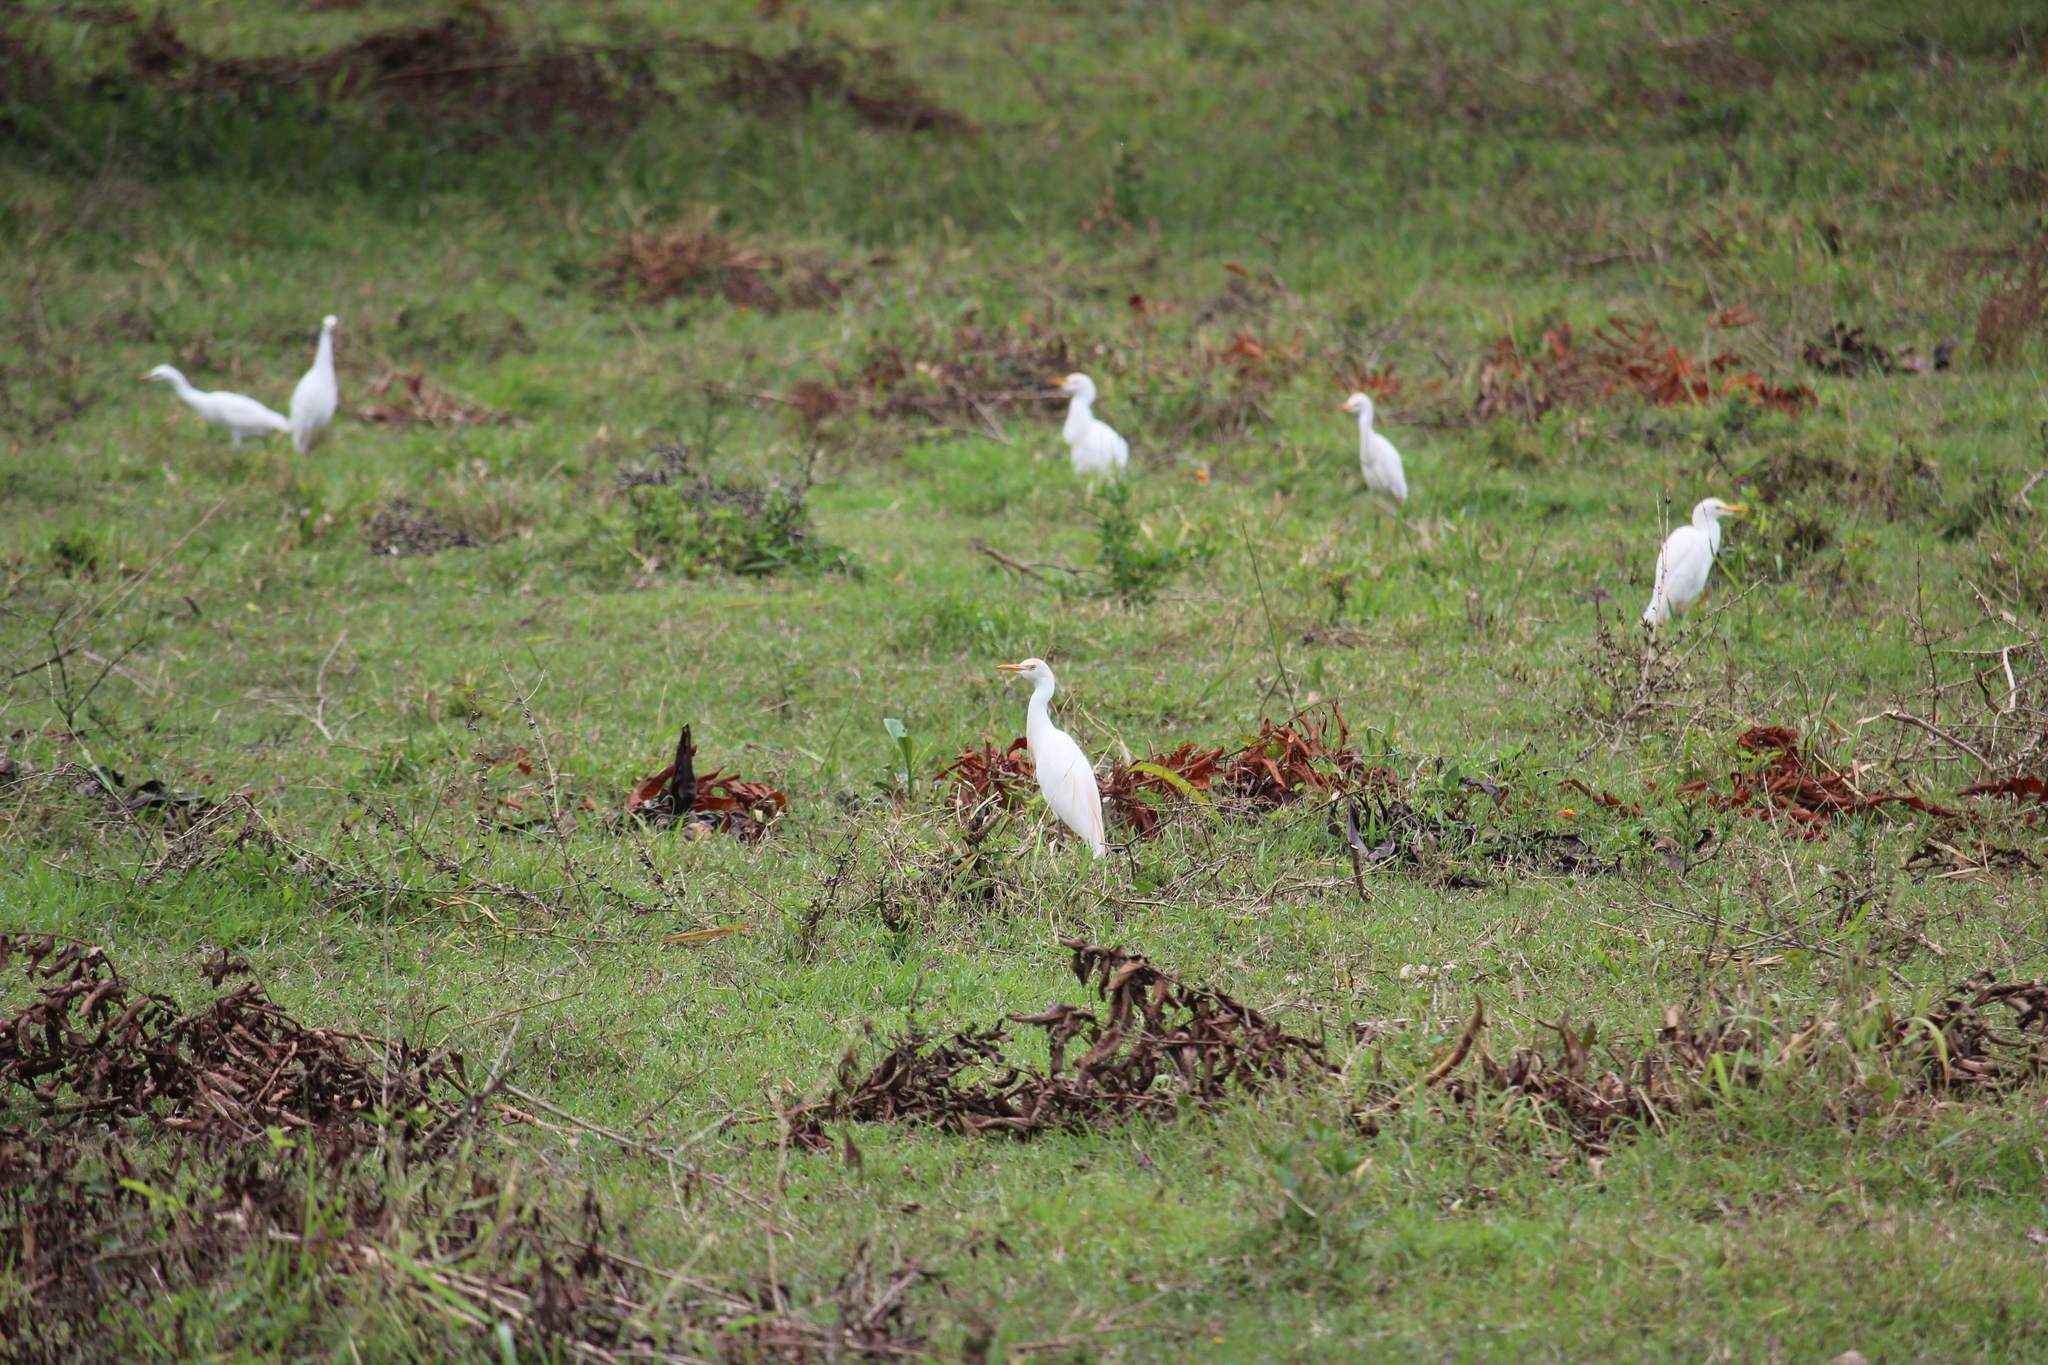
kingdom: Animalia
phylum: Chordata
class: Aves
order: Pelecaniformes
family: Ardeidae
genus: Bubulcus
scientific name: Bubulcus ibis
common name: Cattle egret
